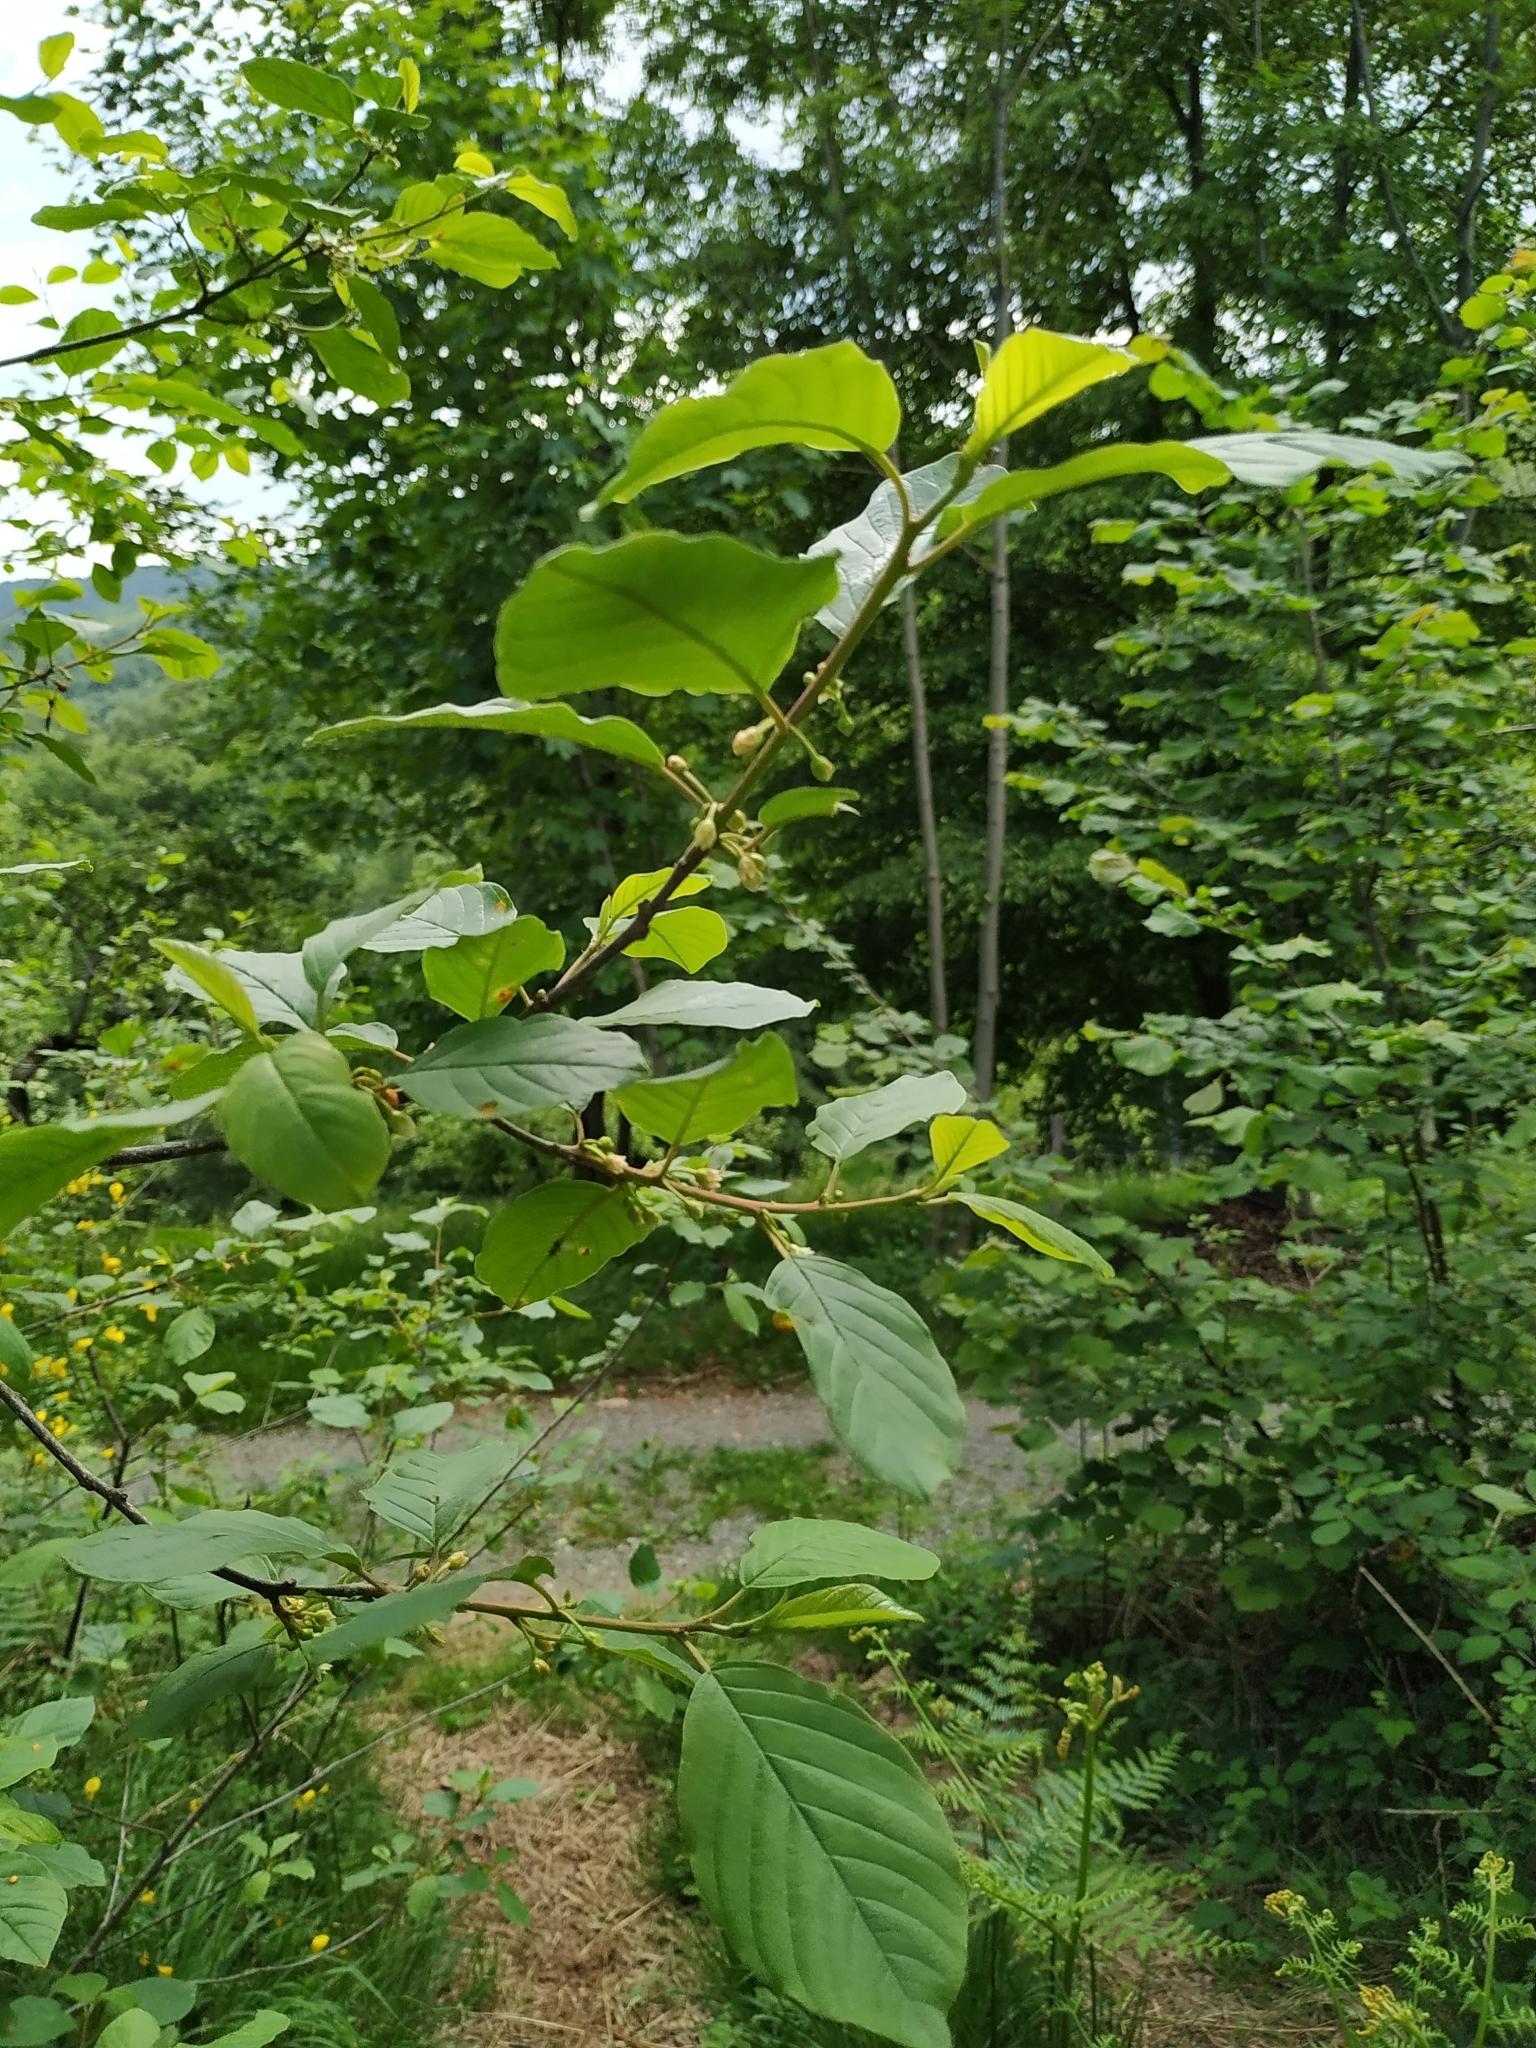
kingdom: Plantae
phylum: Tracheophyta
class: Magnoliopsida
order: Rosales
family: Rhamnaceae
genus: Frangula
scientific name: Frangula alnus
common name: Alder buckthorn
